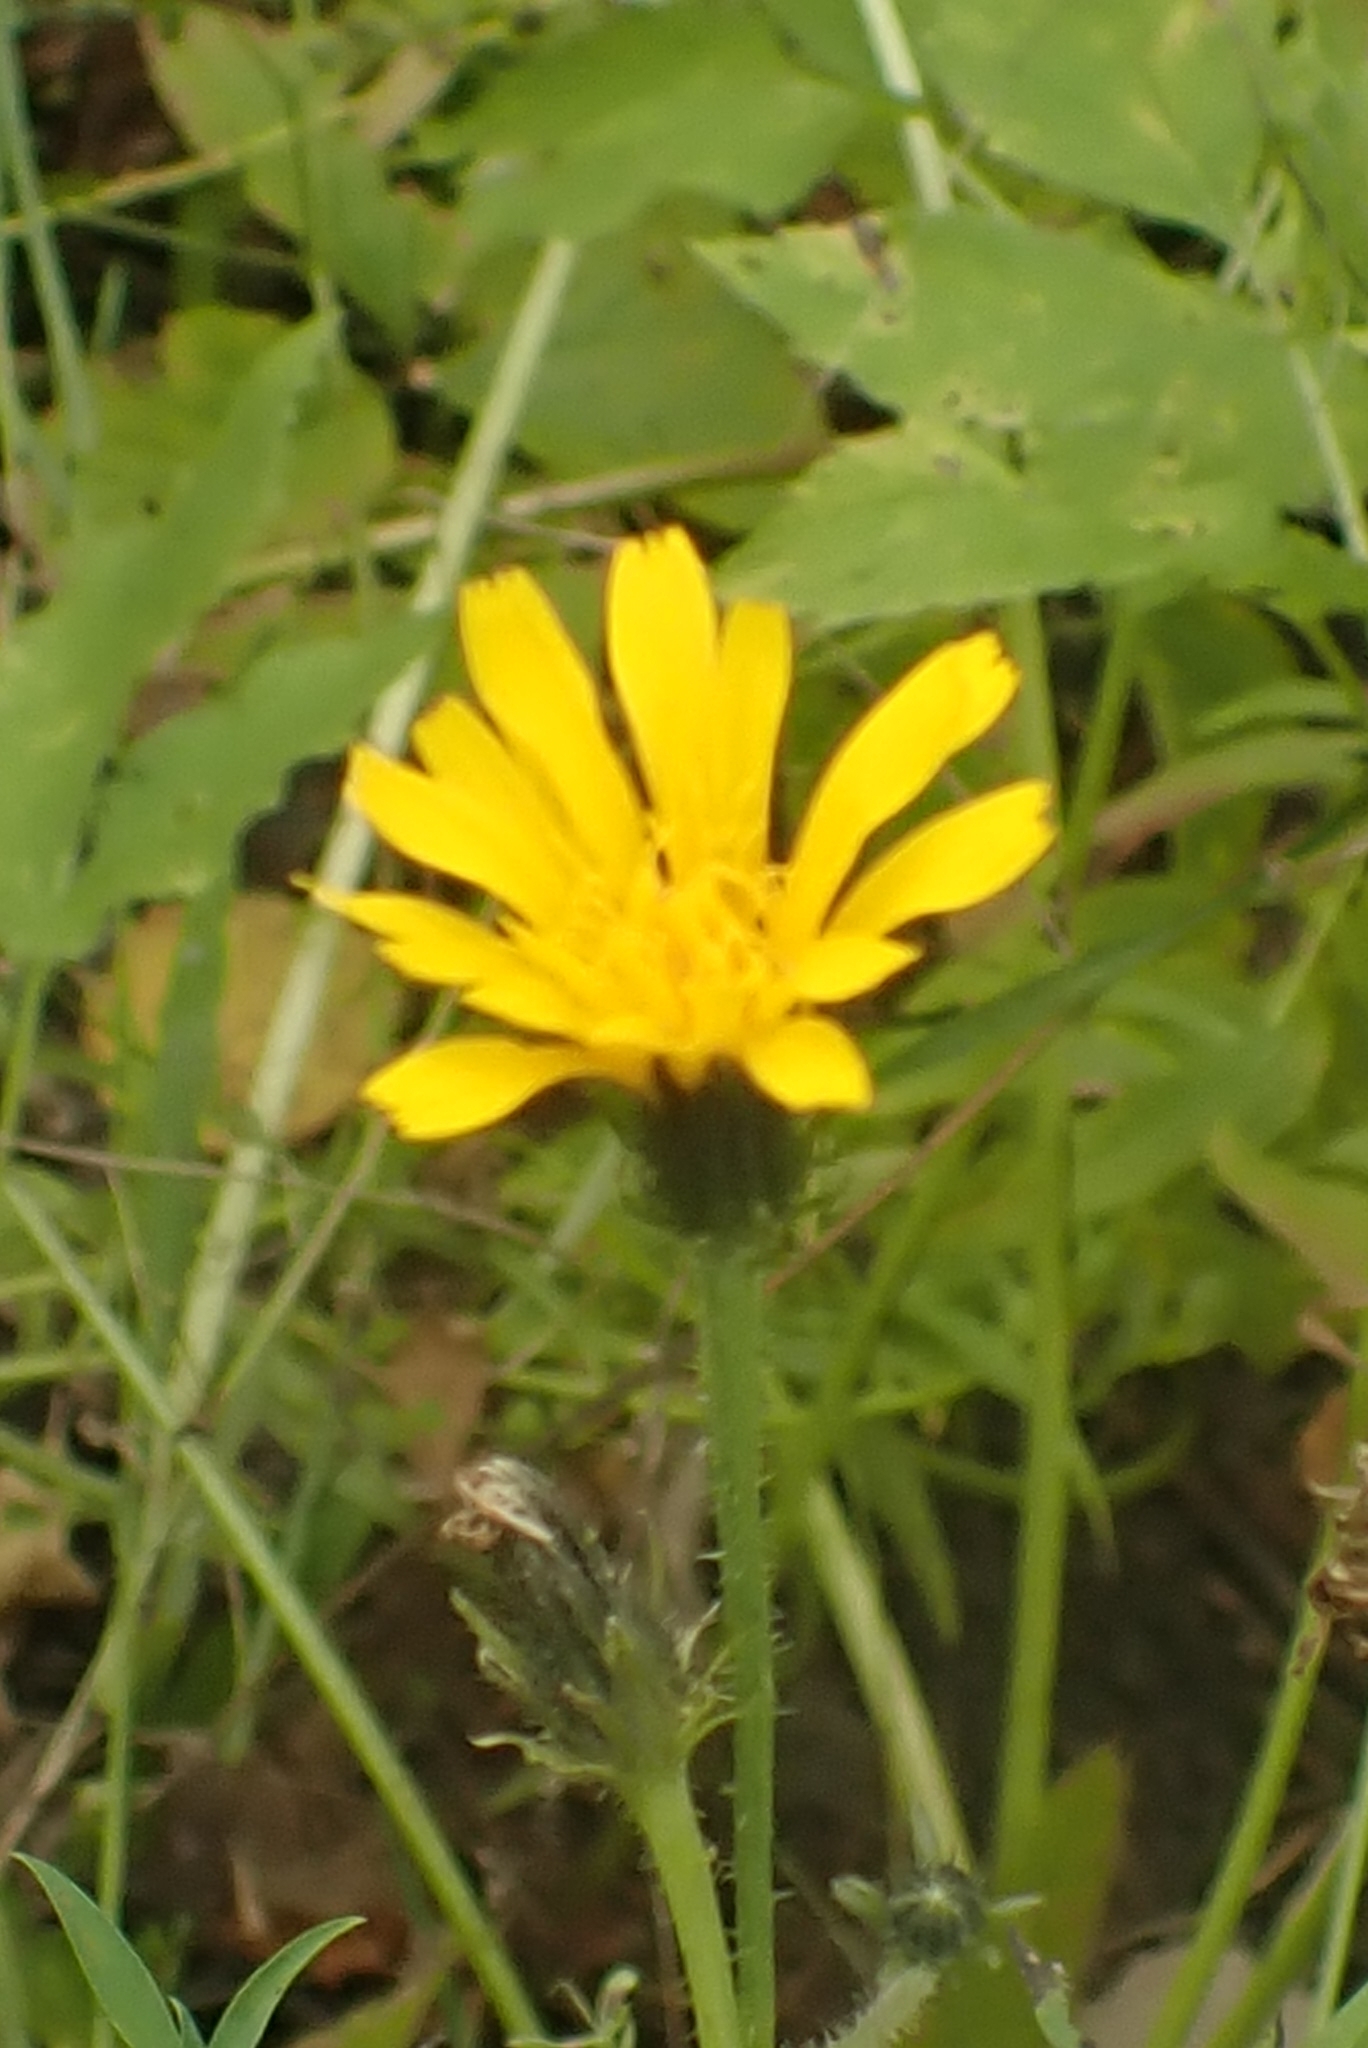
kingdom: Plantae
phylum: Tracheophyta
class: Magnoliopsida
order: Asterales
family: Asteraceae
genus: Picris
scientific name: Picris hieracioides
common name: Hawkweed oxtongue
